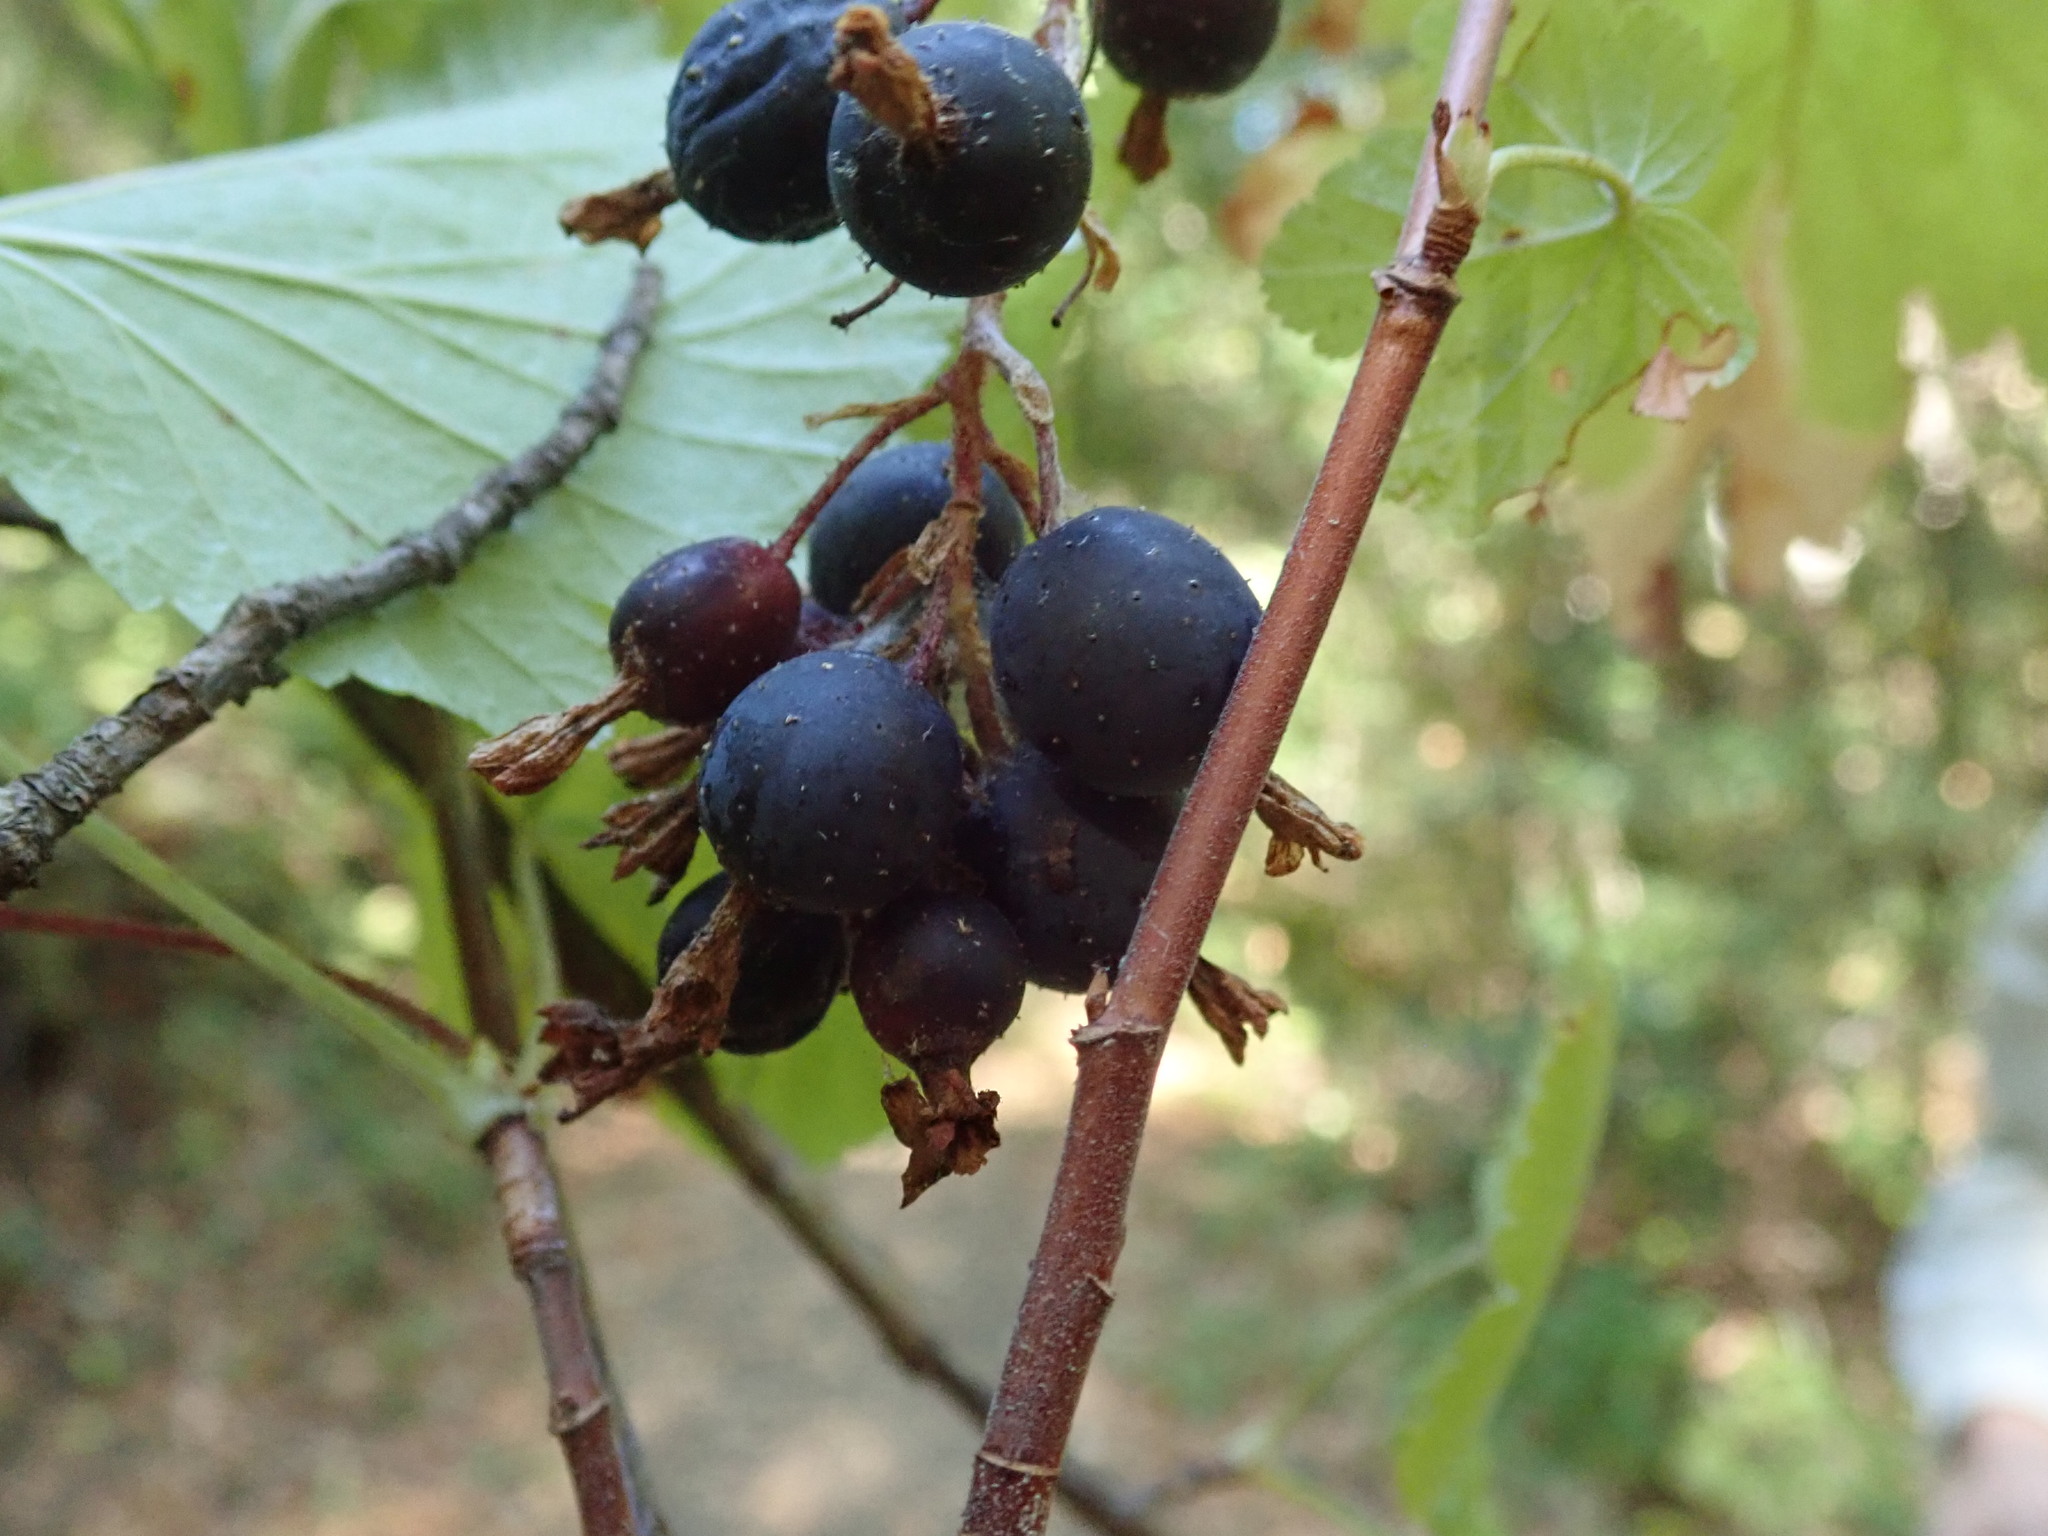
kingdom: Plantae
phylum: Tracheophyta
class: Magnoliopsida
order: Saxifragales
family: Grossulariaceae
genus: Ribes
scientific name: Ribes sanguineum
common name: Flowering currant
